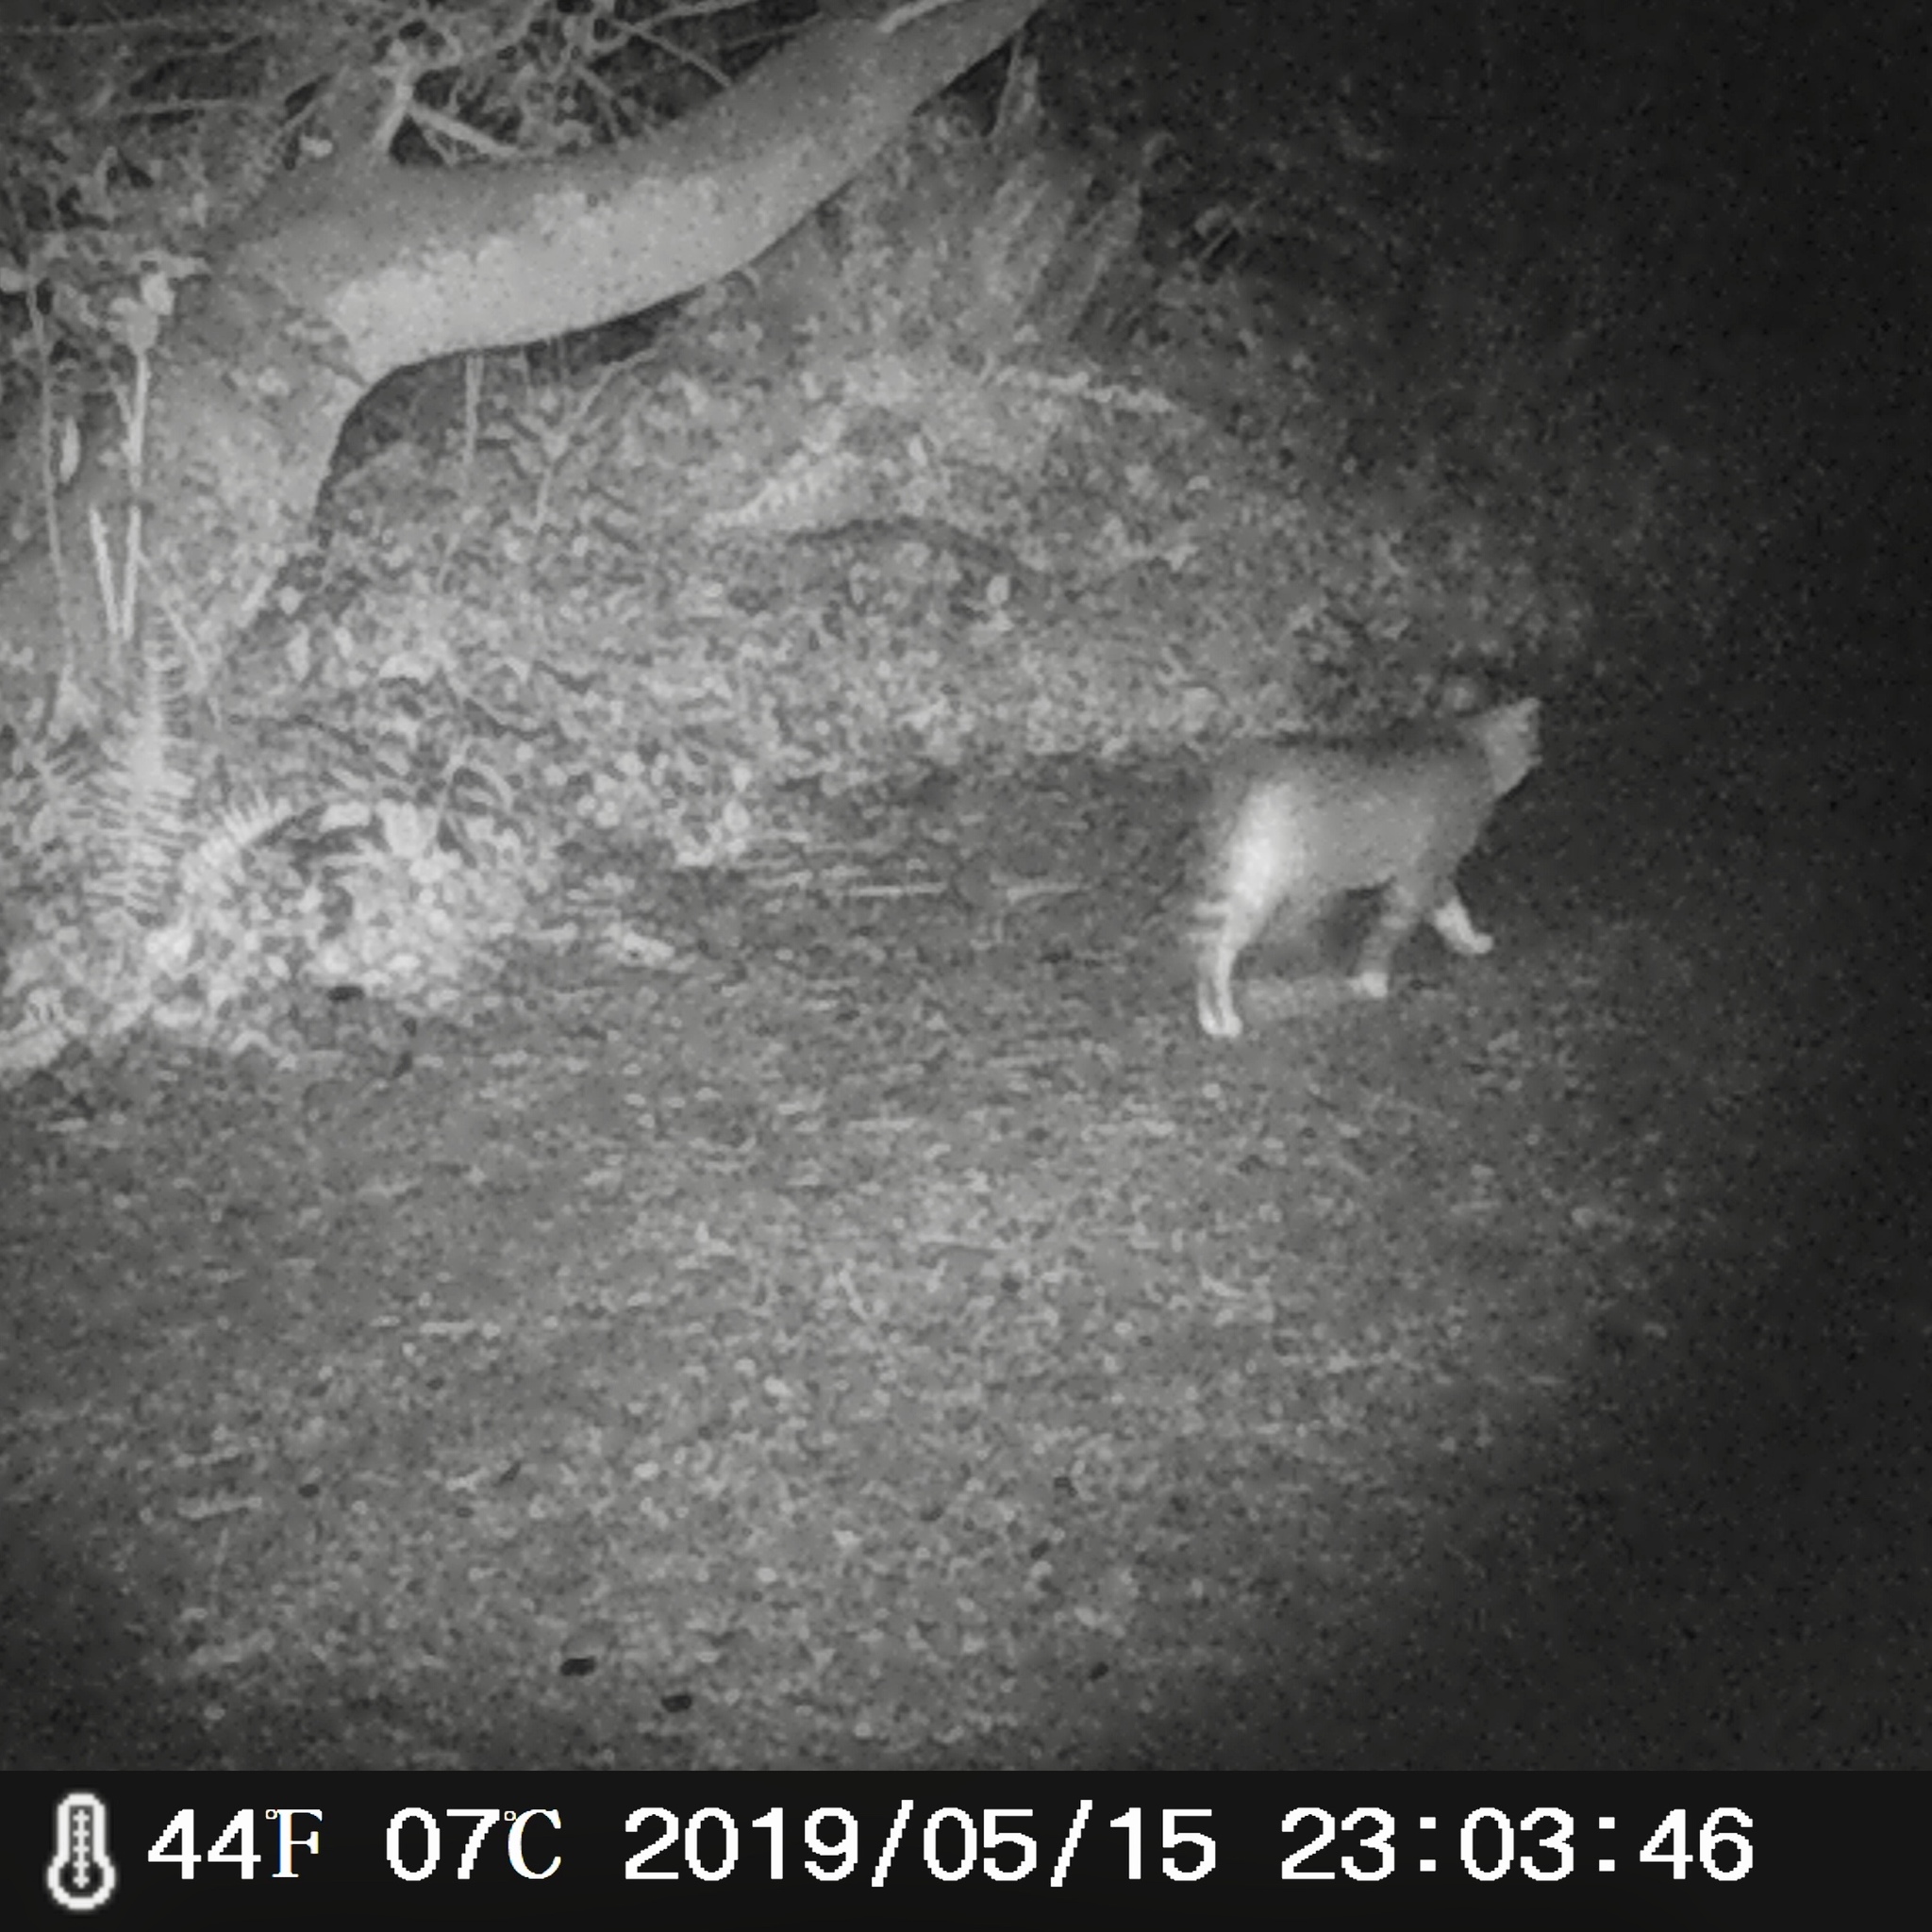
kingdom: Animalia
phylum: Chordata
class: Mammalia
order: Carnivora
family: Felidae
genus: Felis
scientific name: Felis catus
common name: Domestic cat
